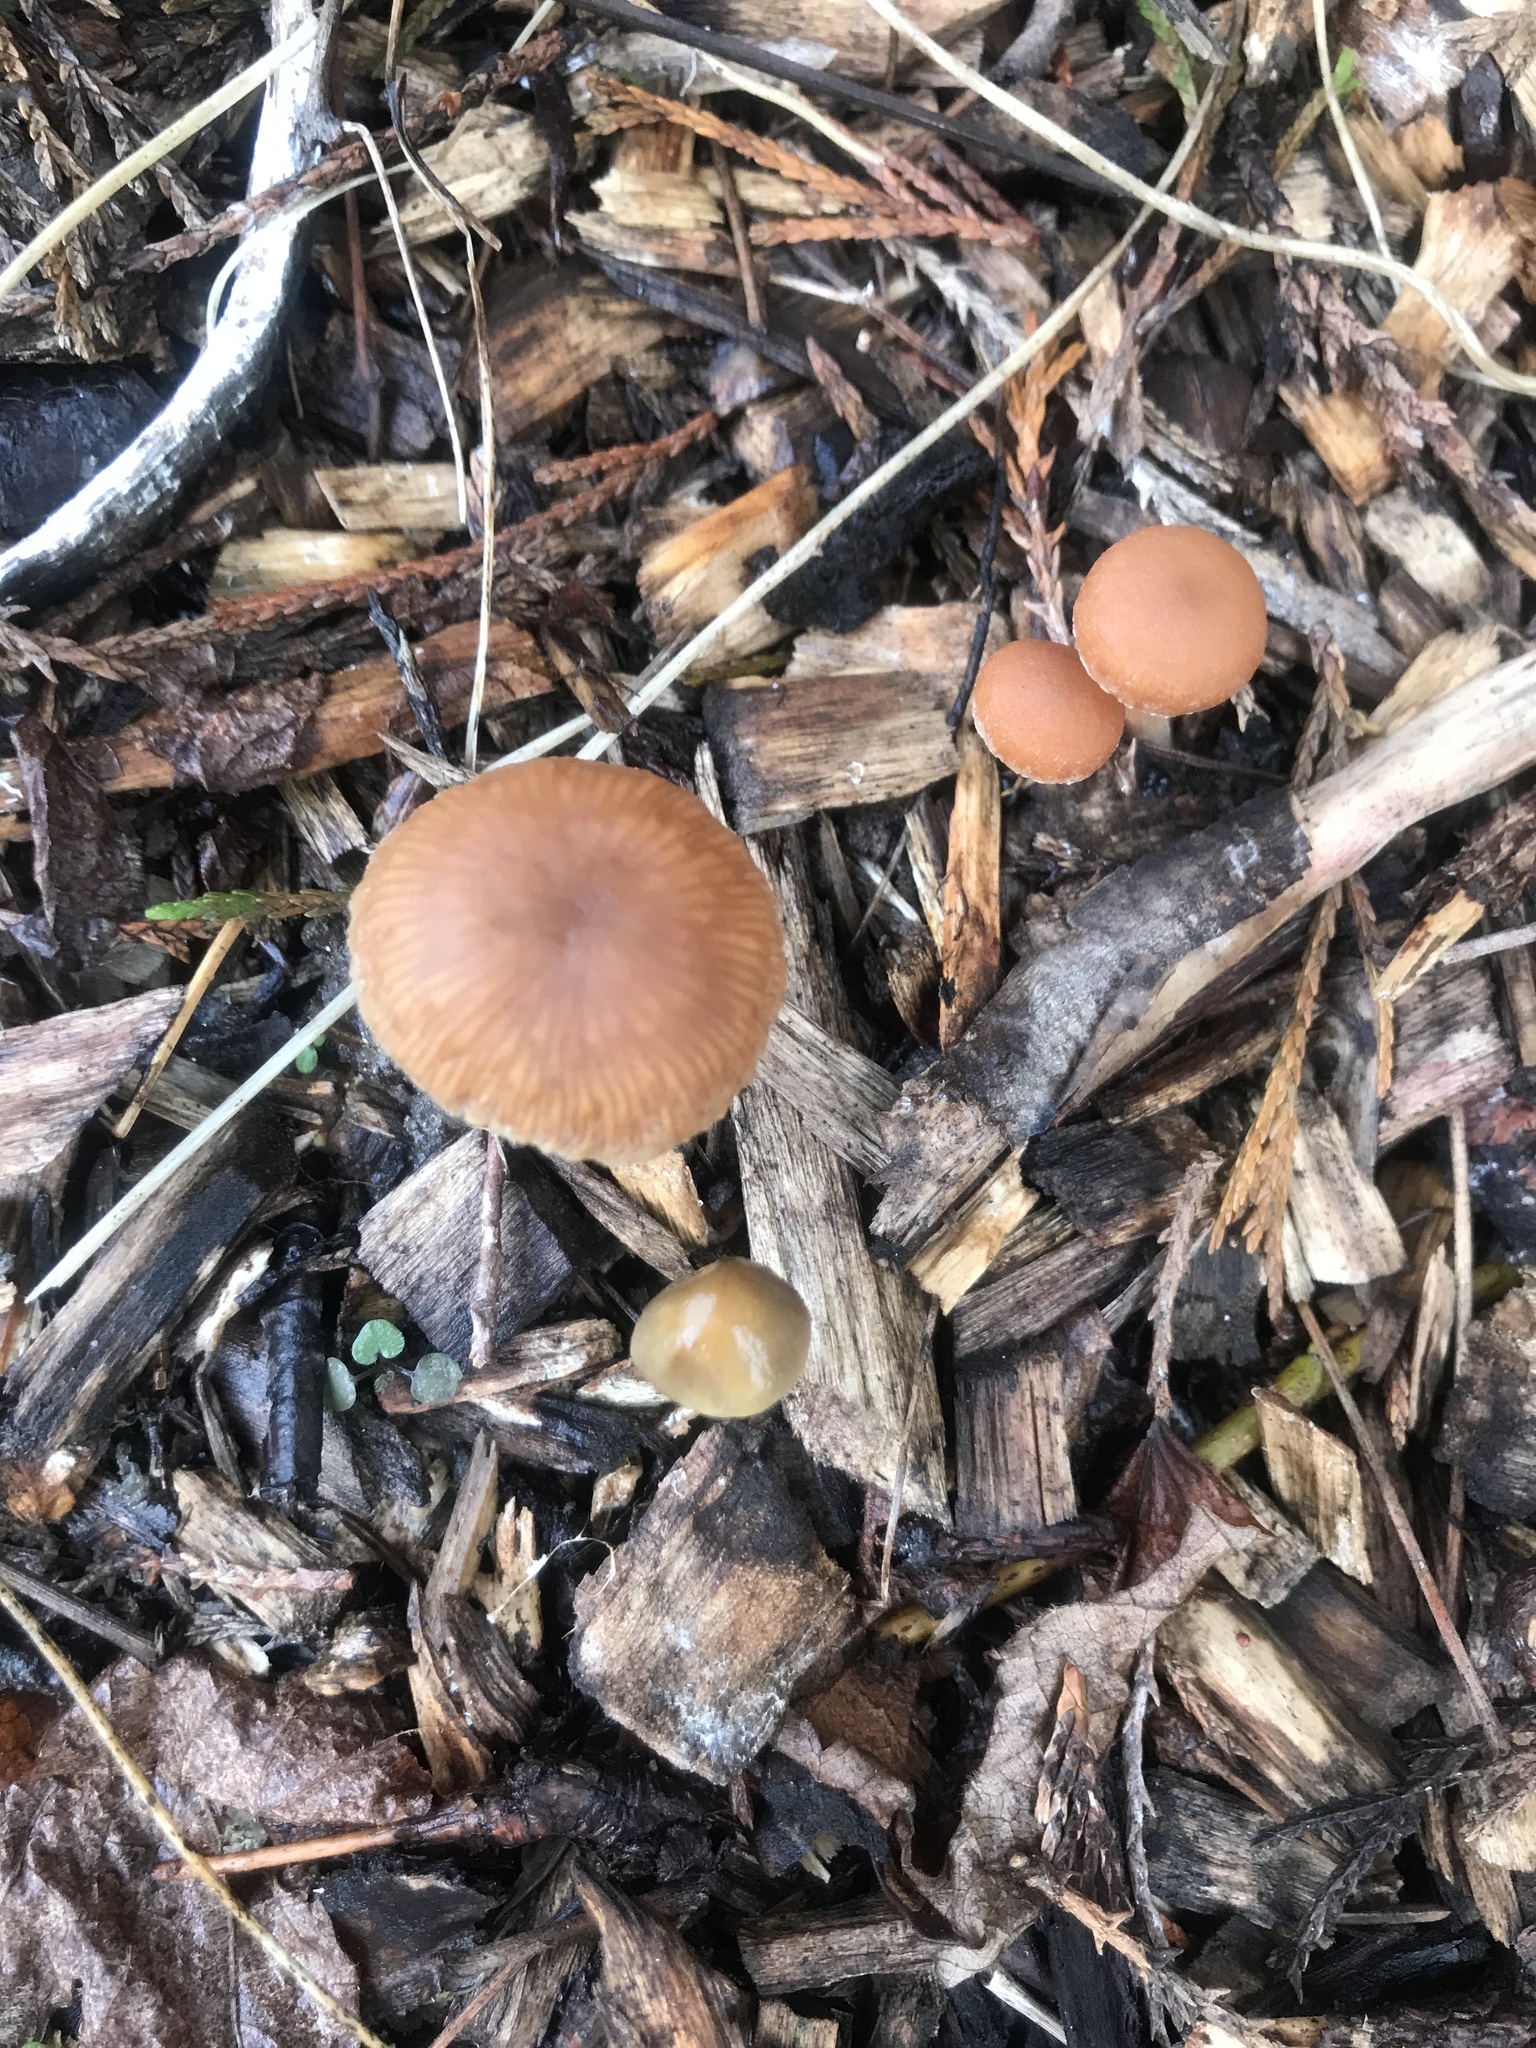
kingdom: Fungi
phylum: Basidiomycota
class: Agaricomycetes
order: Agaricales
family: Tubariaceae
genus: Tubaria
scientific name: Tubaria furfuracea
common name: Scurfy twiglet
